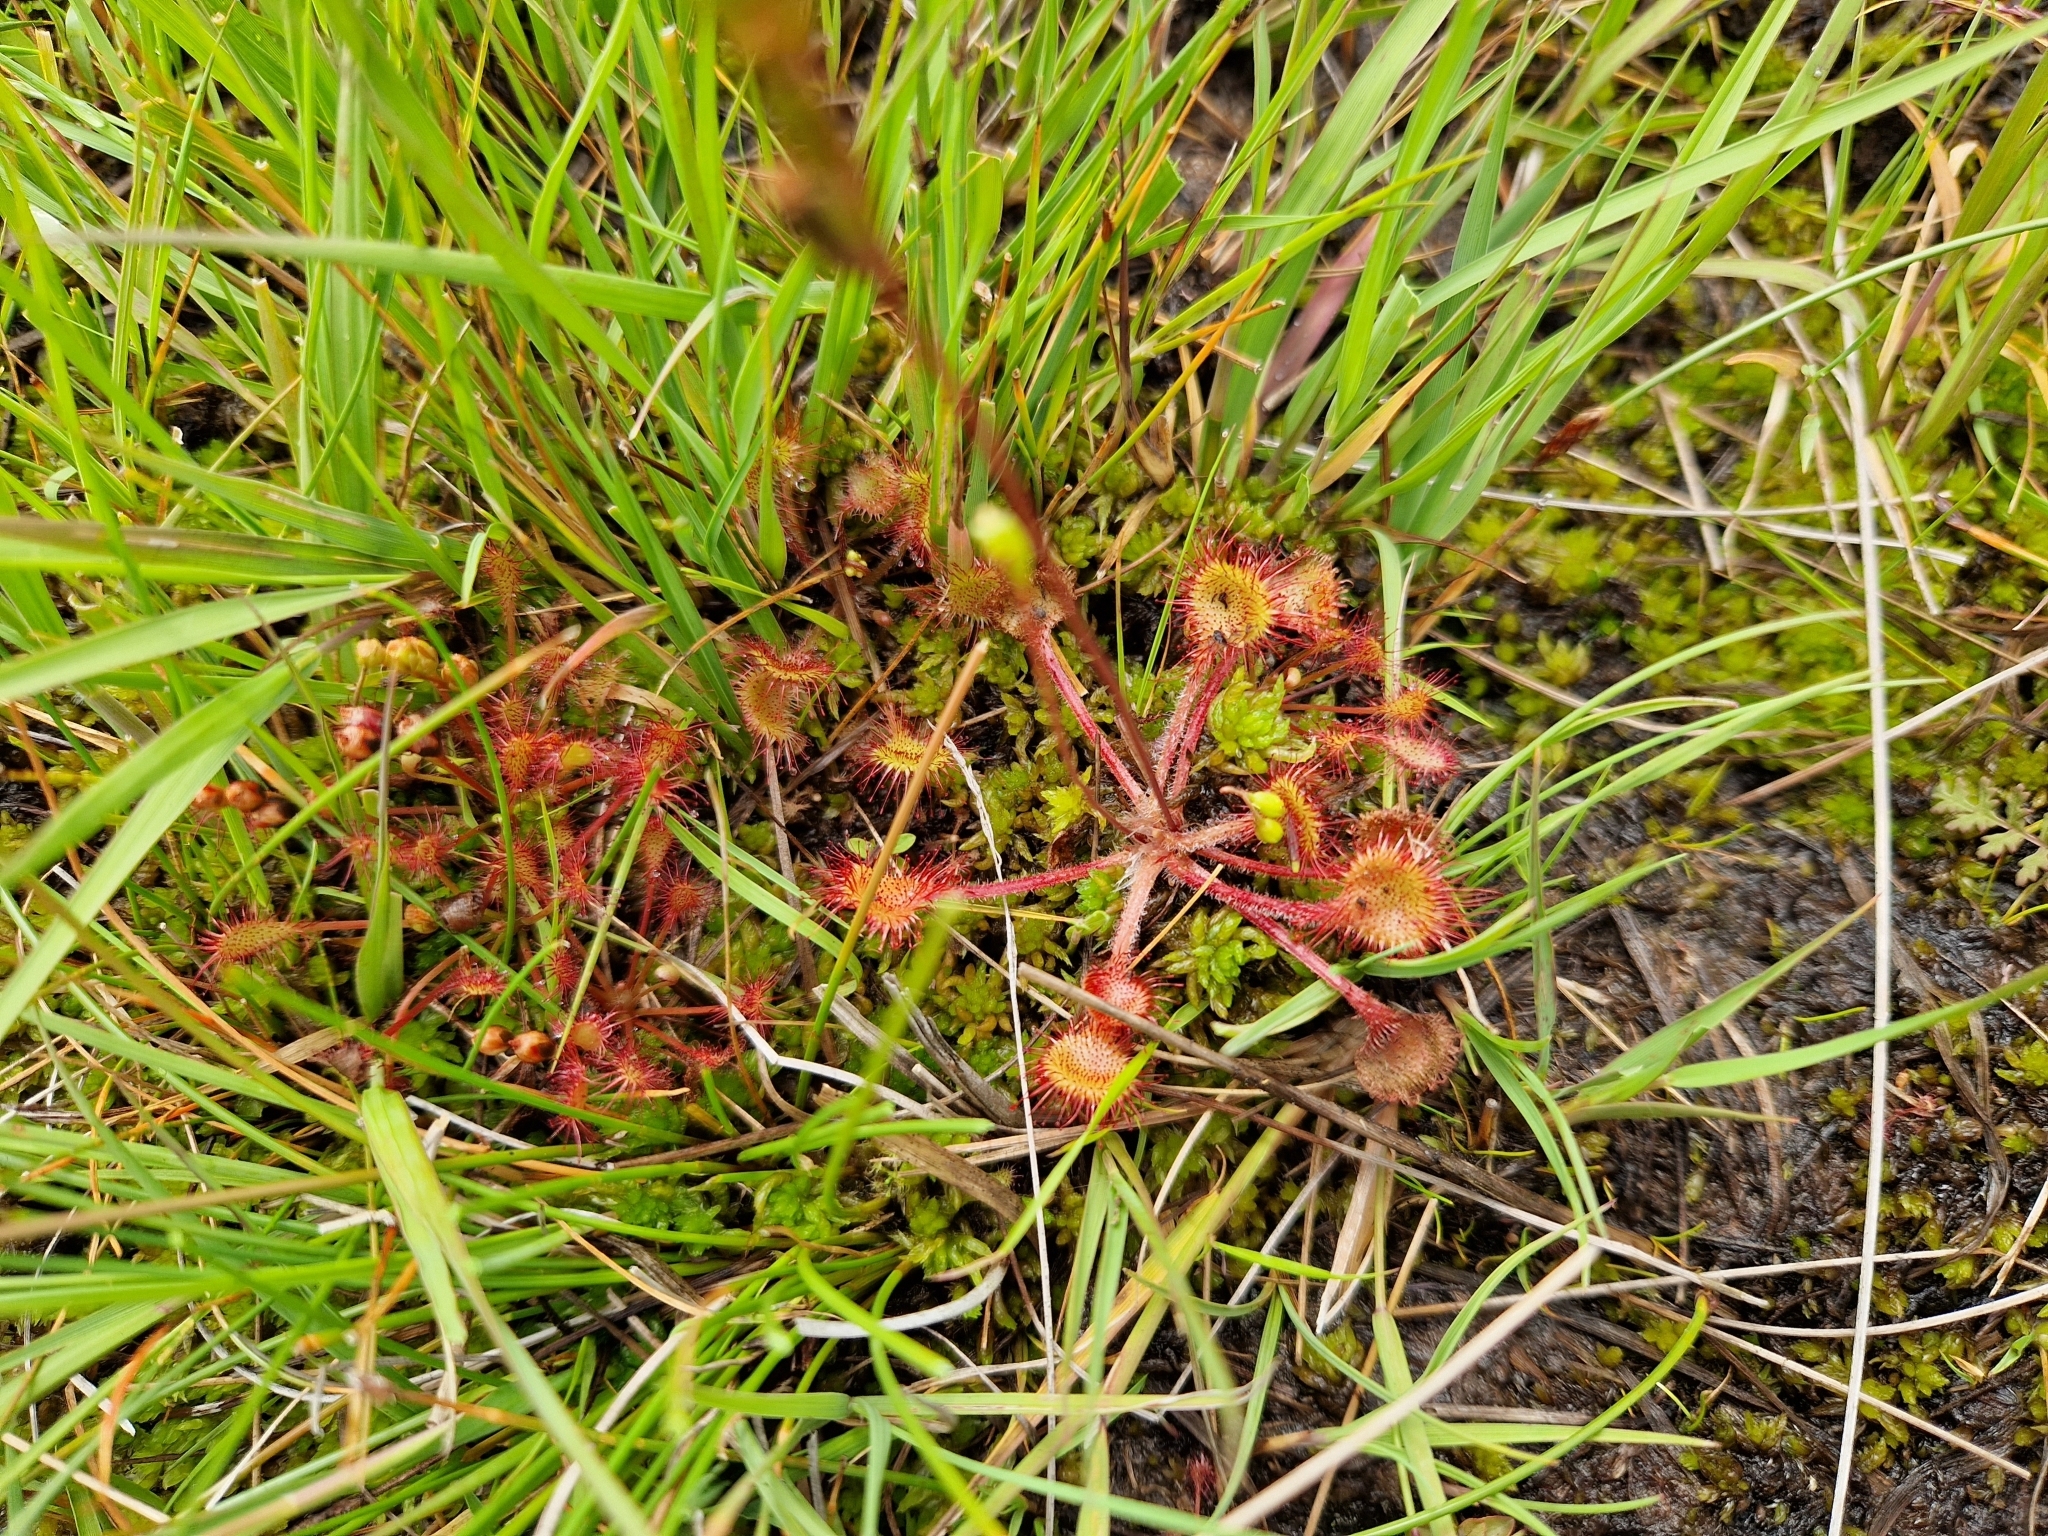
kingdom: Plantae
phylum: Tracheophyta
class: Magnoliopsida
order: Caryophyllales
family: Droseraceae
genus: Drosera
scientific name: Drosera rotundifolia
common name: Round-leaved sundew
